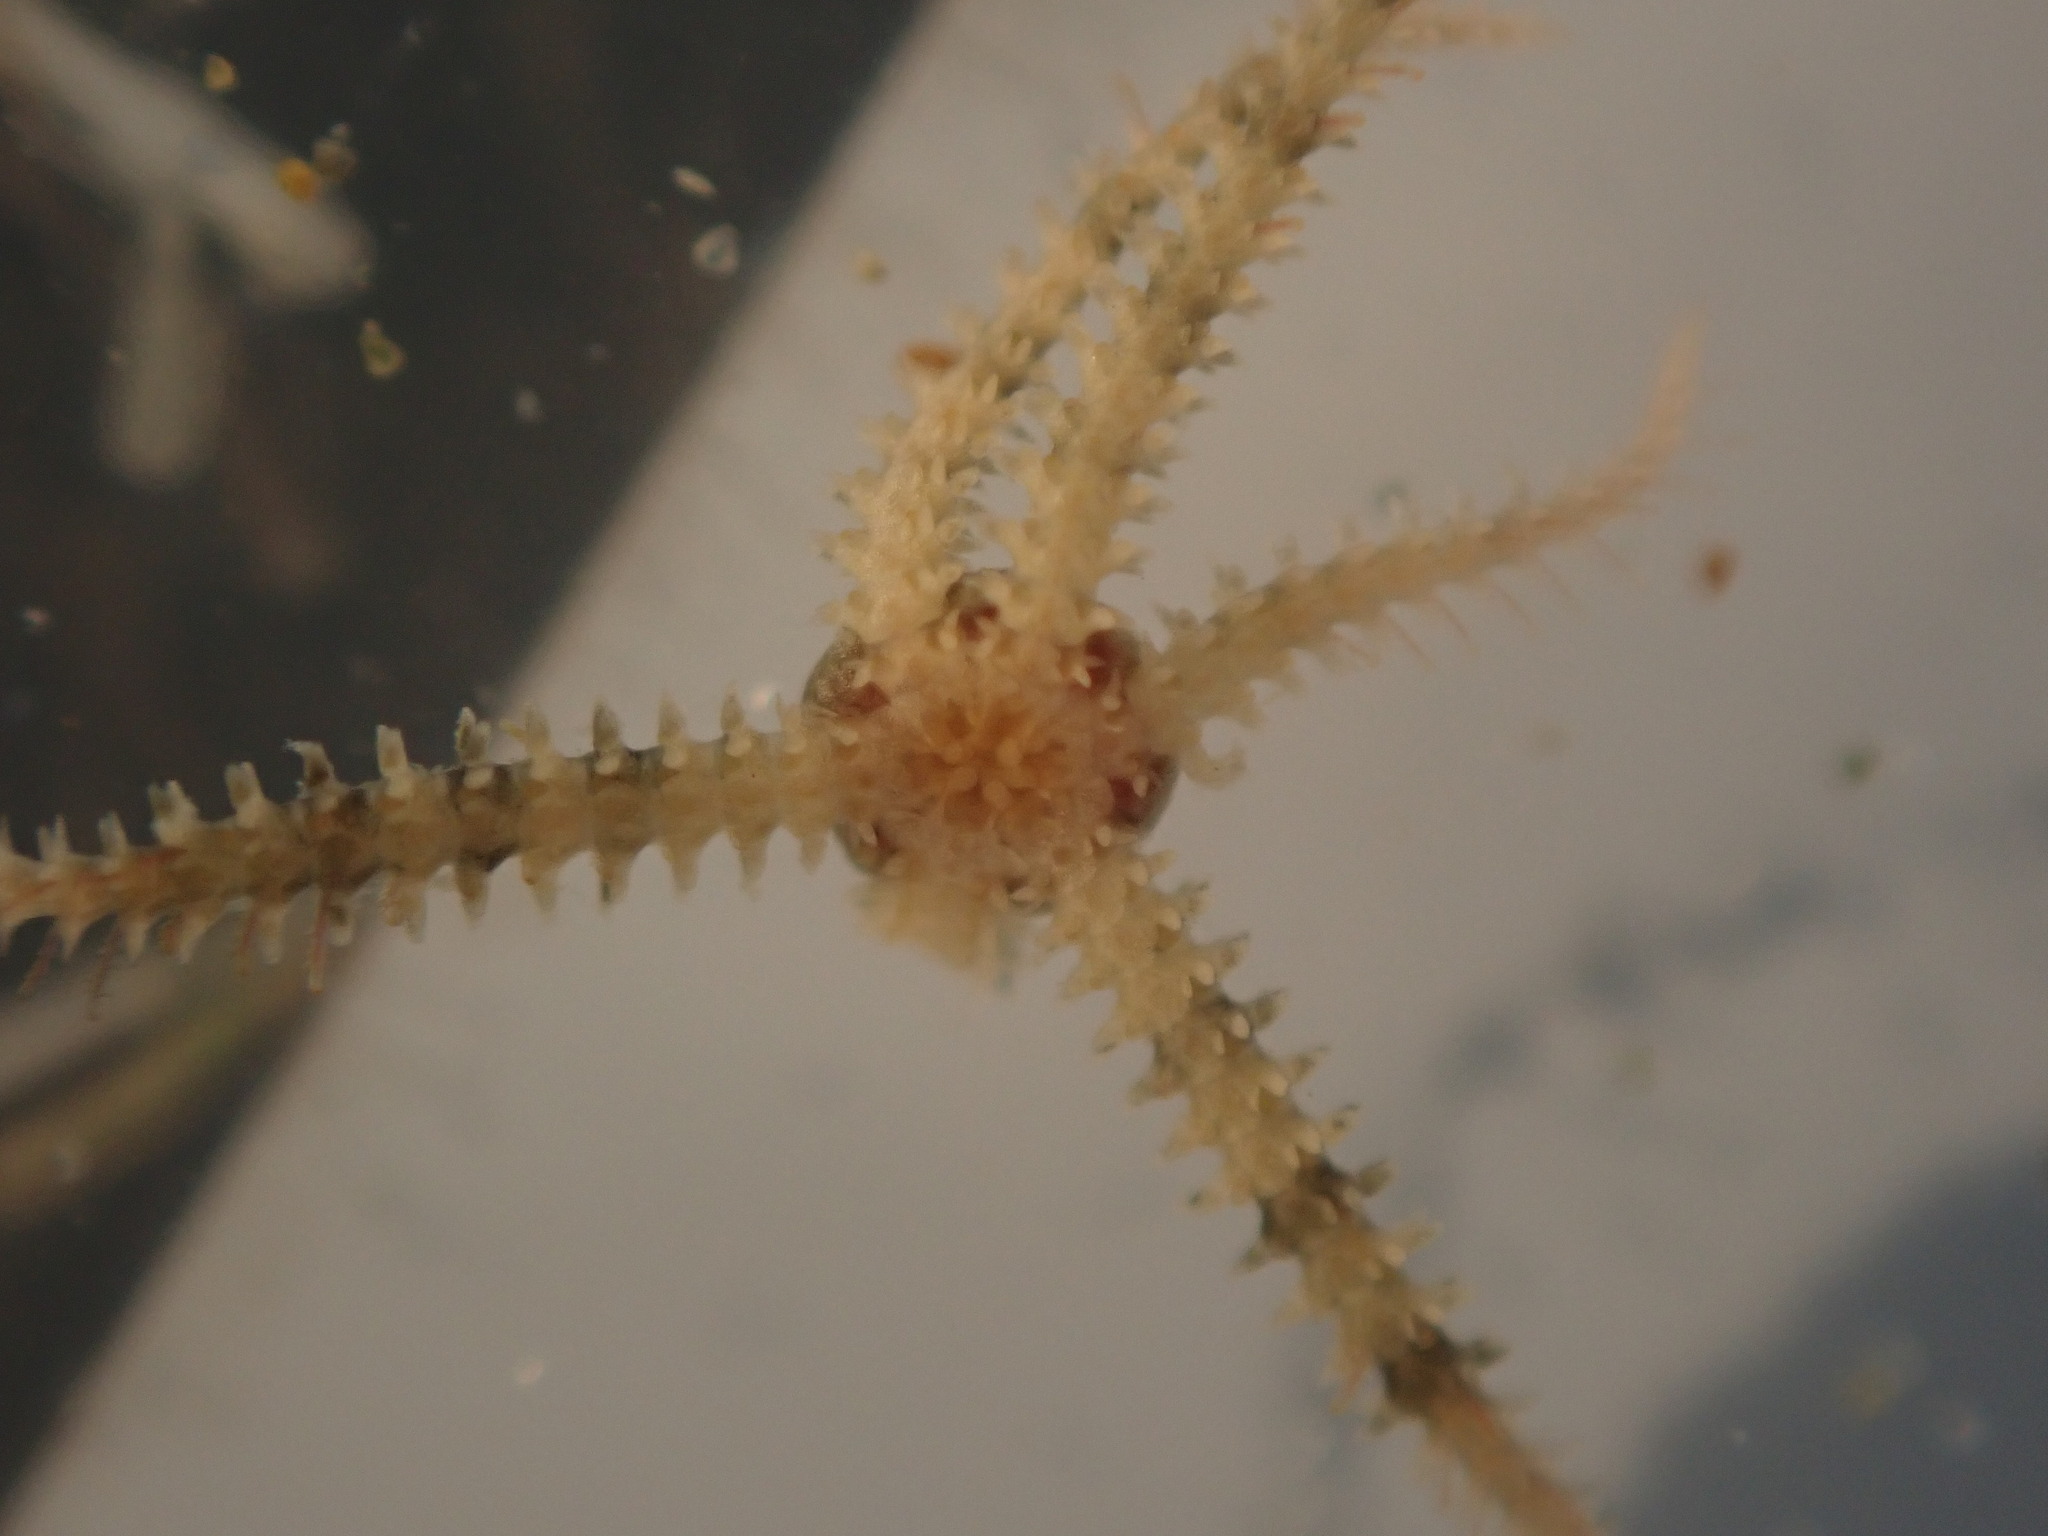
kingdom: Animalia
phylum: Echinodermata
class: Ophiuroidea
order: Amphilepidida
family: Ophiactidae
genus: Ophiactis
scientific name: Ophiactis hirta
